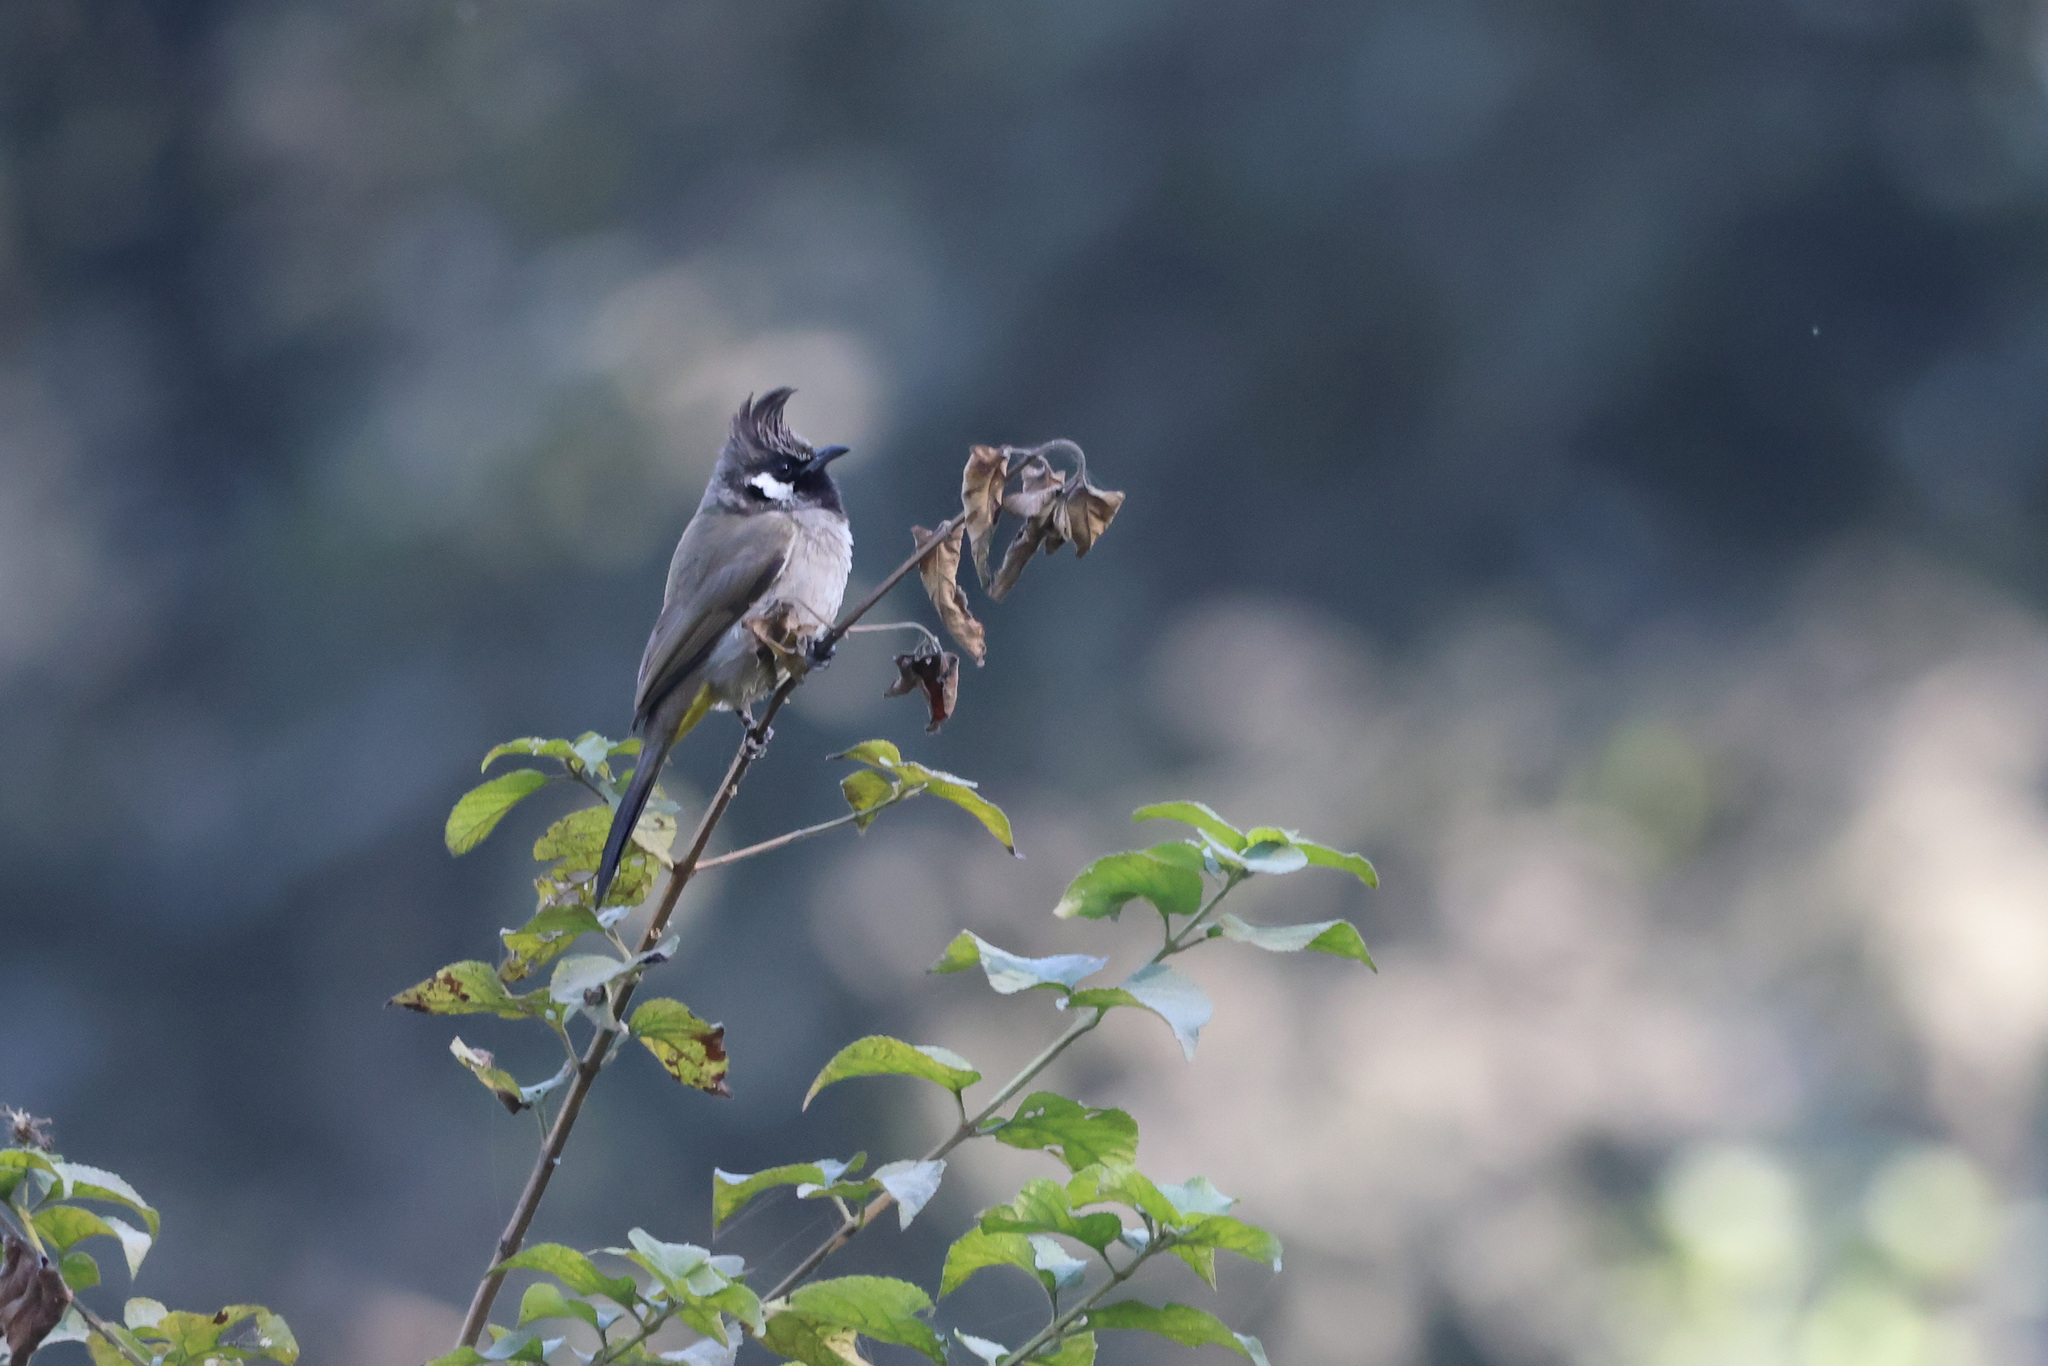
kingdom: Animalia
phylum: Chordata
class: Aves
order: Passeriformes
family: Pycnonotidae
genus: Pycnonotus
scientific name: Pycnonotus leucogenys
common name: Himalayan bulbul
